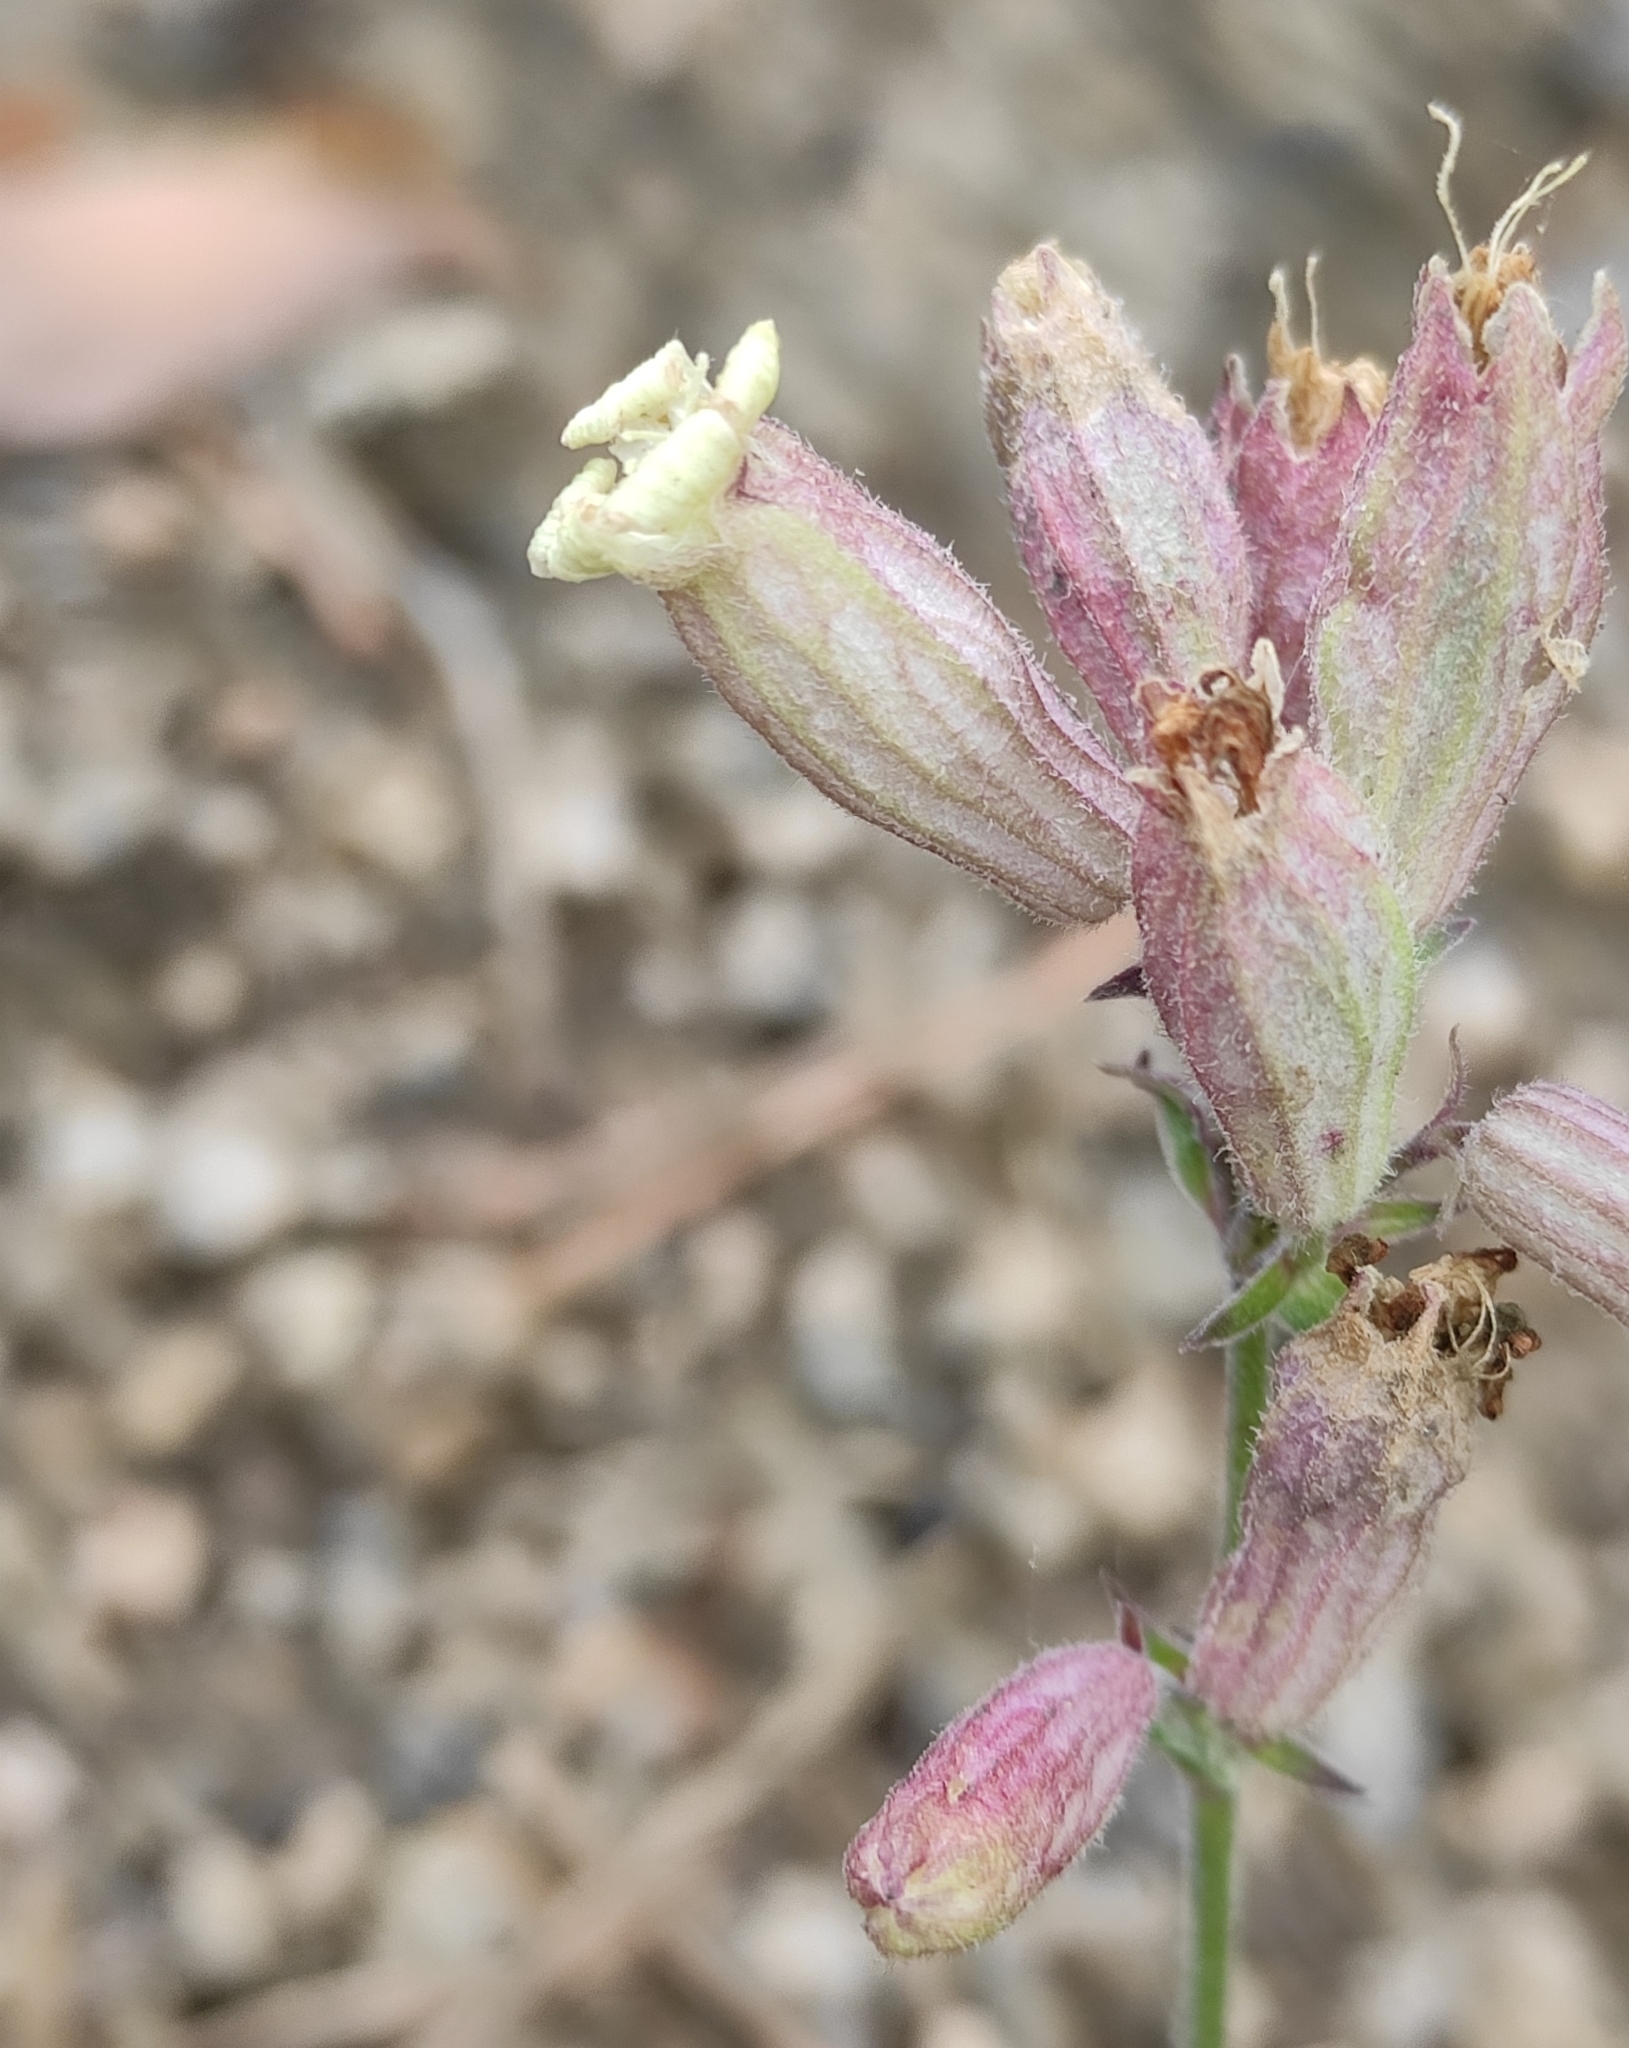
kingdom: Plantae
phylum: Tracheophyta
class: Magnoliopsida
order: Caryophyllales
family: Caryophyllaceae
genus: Silene
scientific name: Silene amoena
